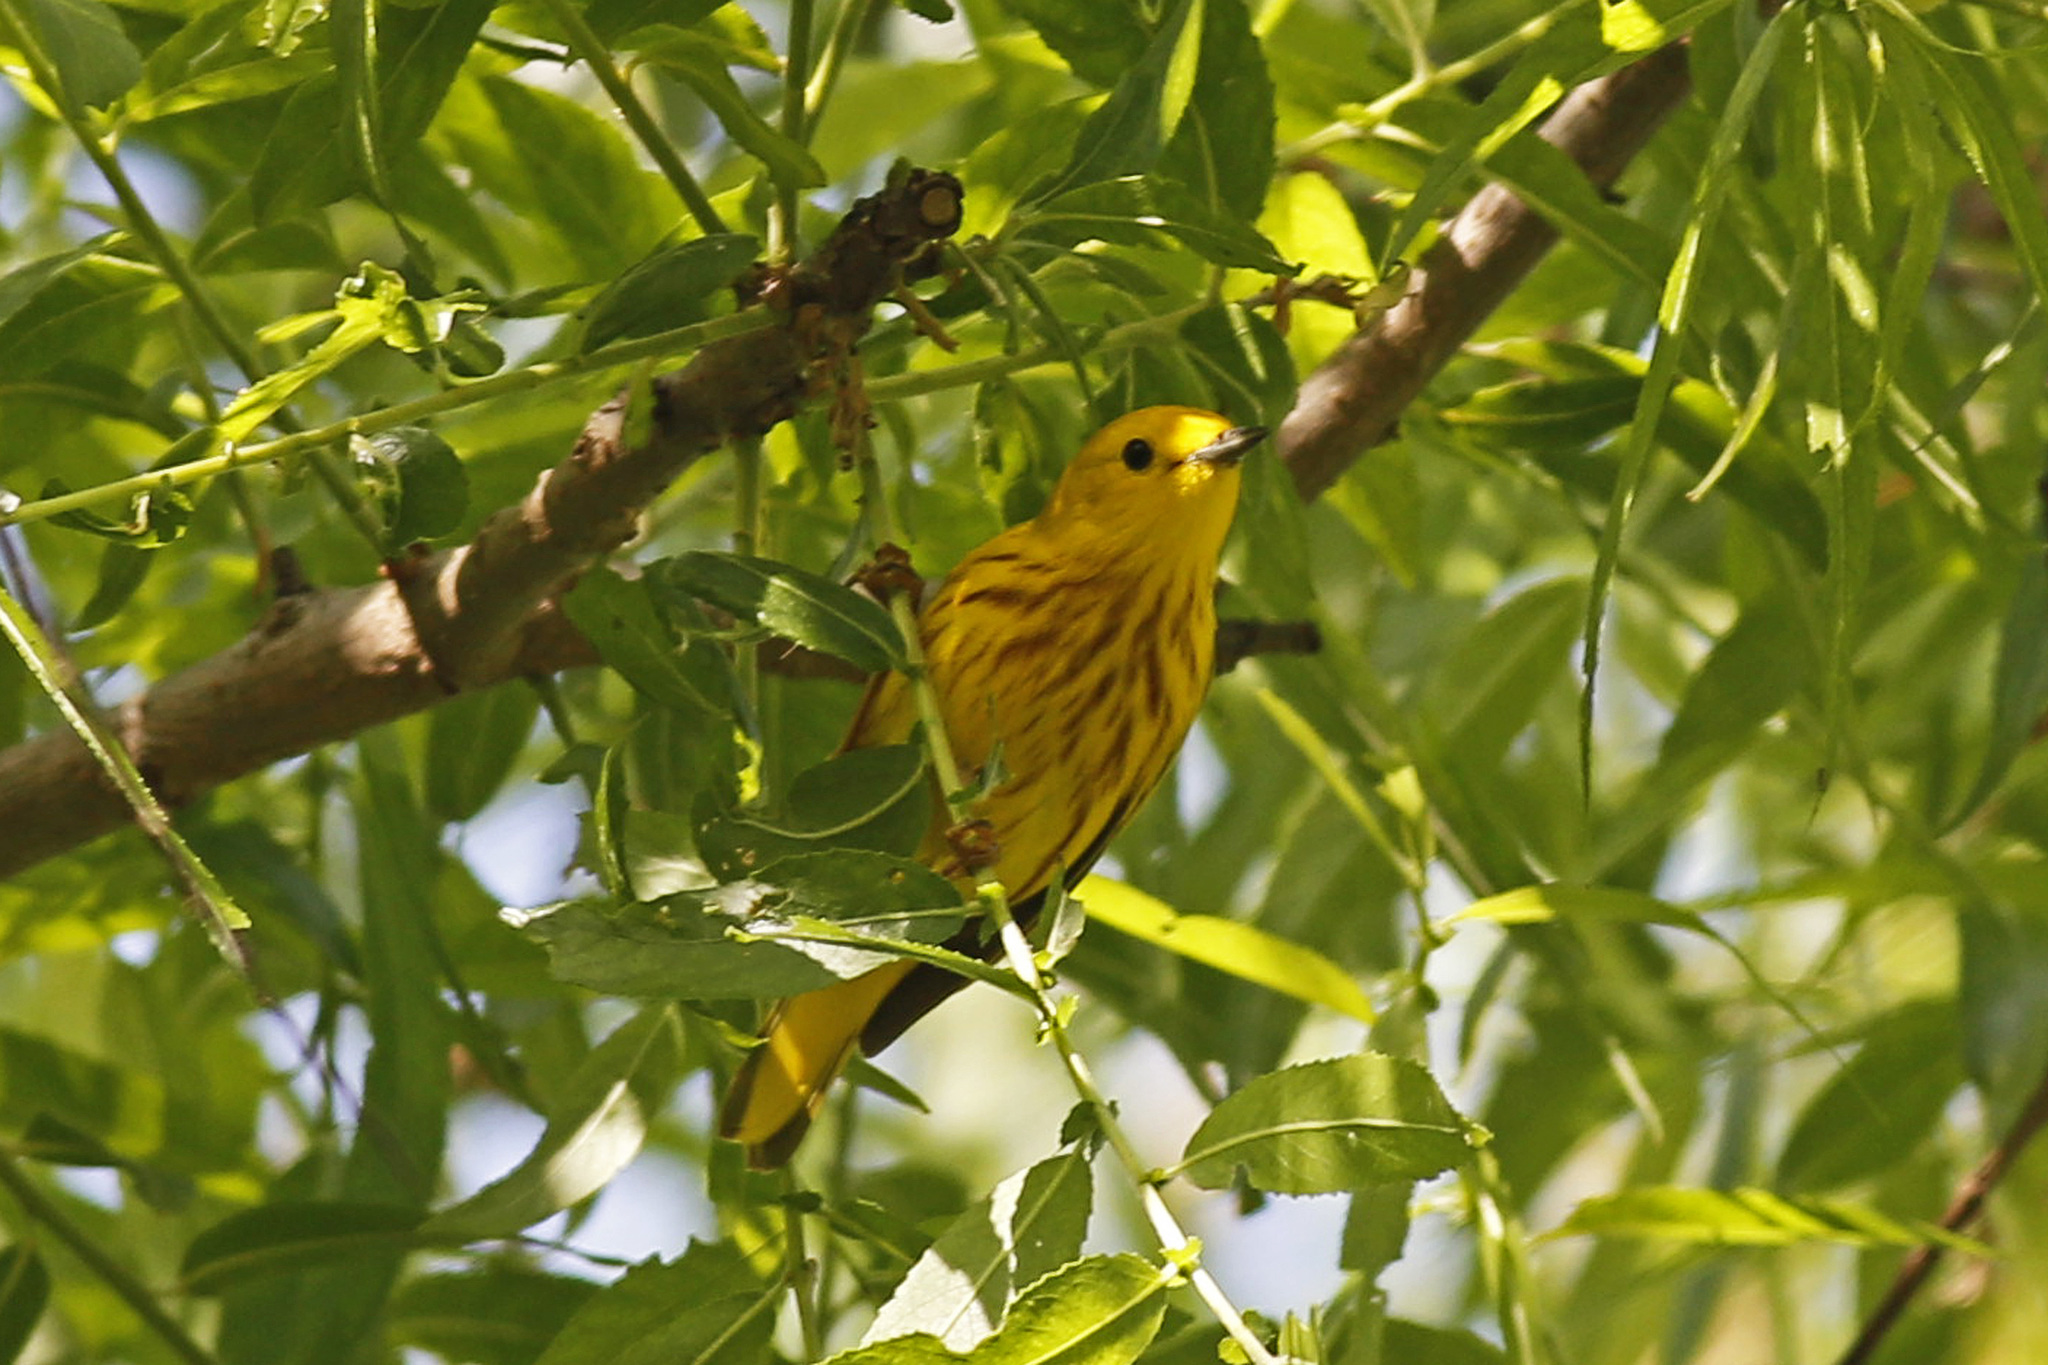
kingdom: Animalia
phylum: Chordata
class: Aves
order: Passeriformes
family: Parulidae
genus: Setophaga
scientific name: Setophaga petechia
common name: Yellow warbler
